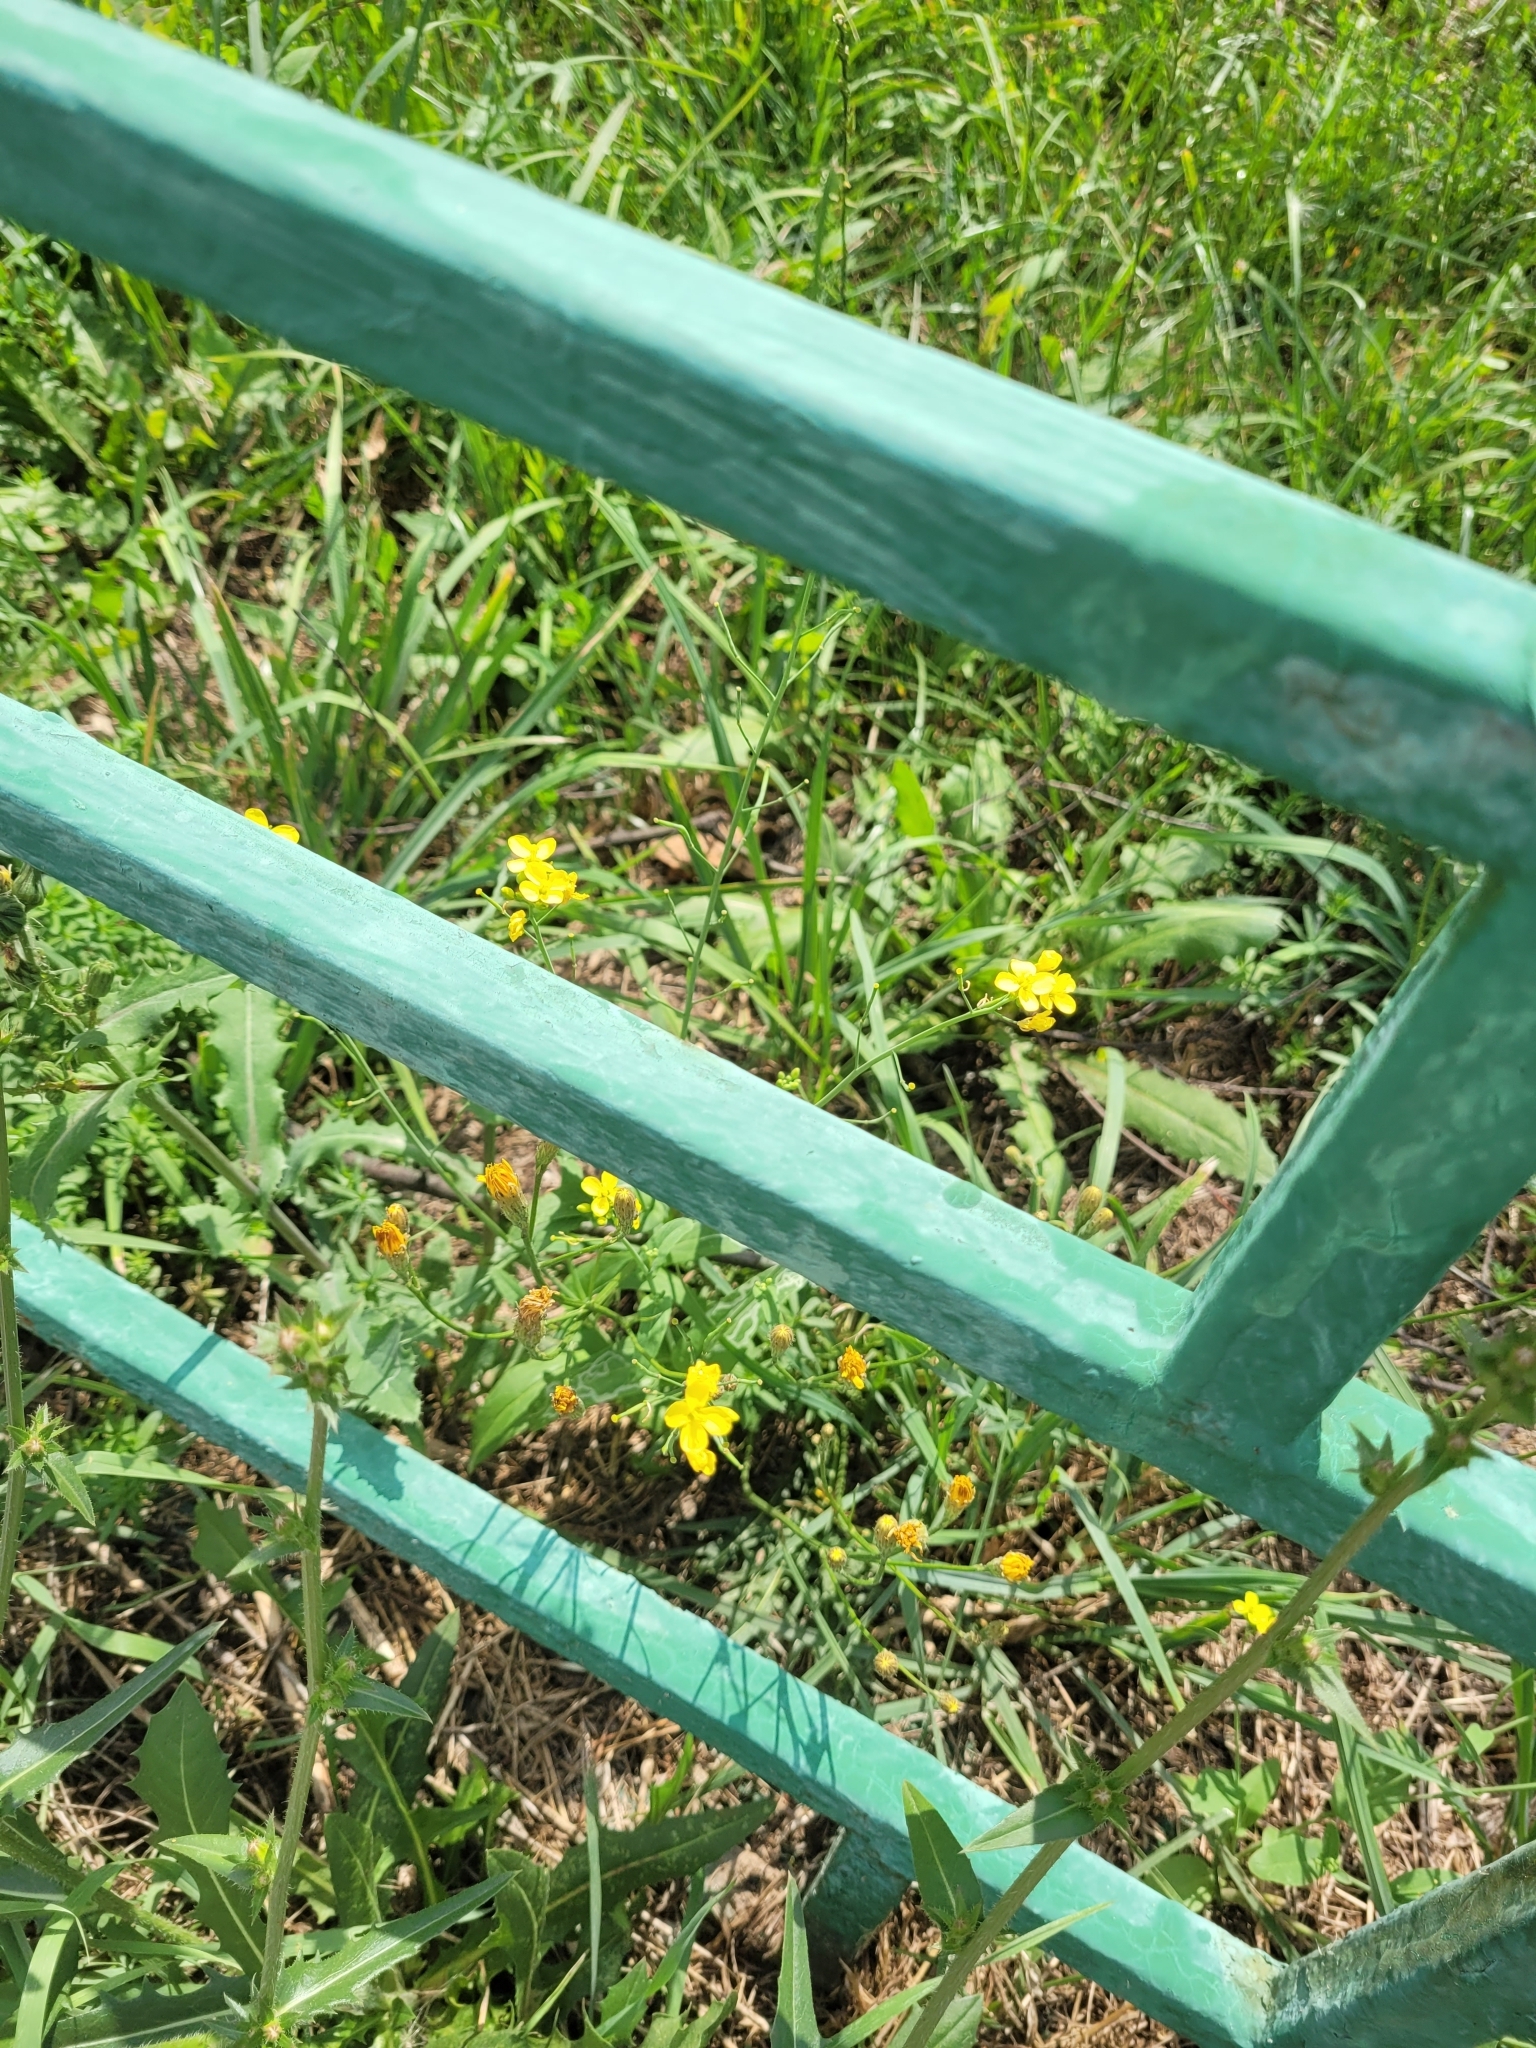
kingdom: Plantae
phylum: Tracheophyta
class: Magnoliopsida
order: Brassicales
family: Brassicaceae
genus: Brassica
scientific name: Brassica rapa
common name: Field mustard
